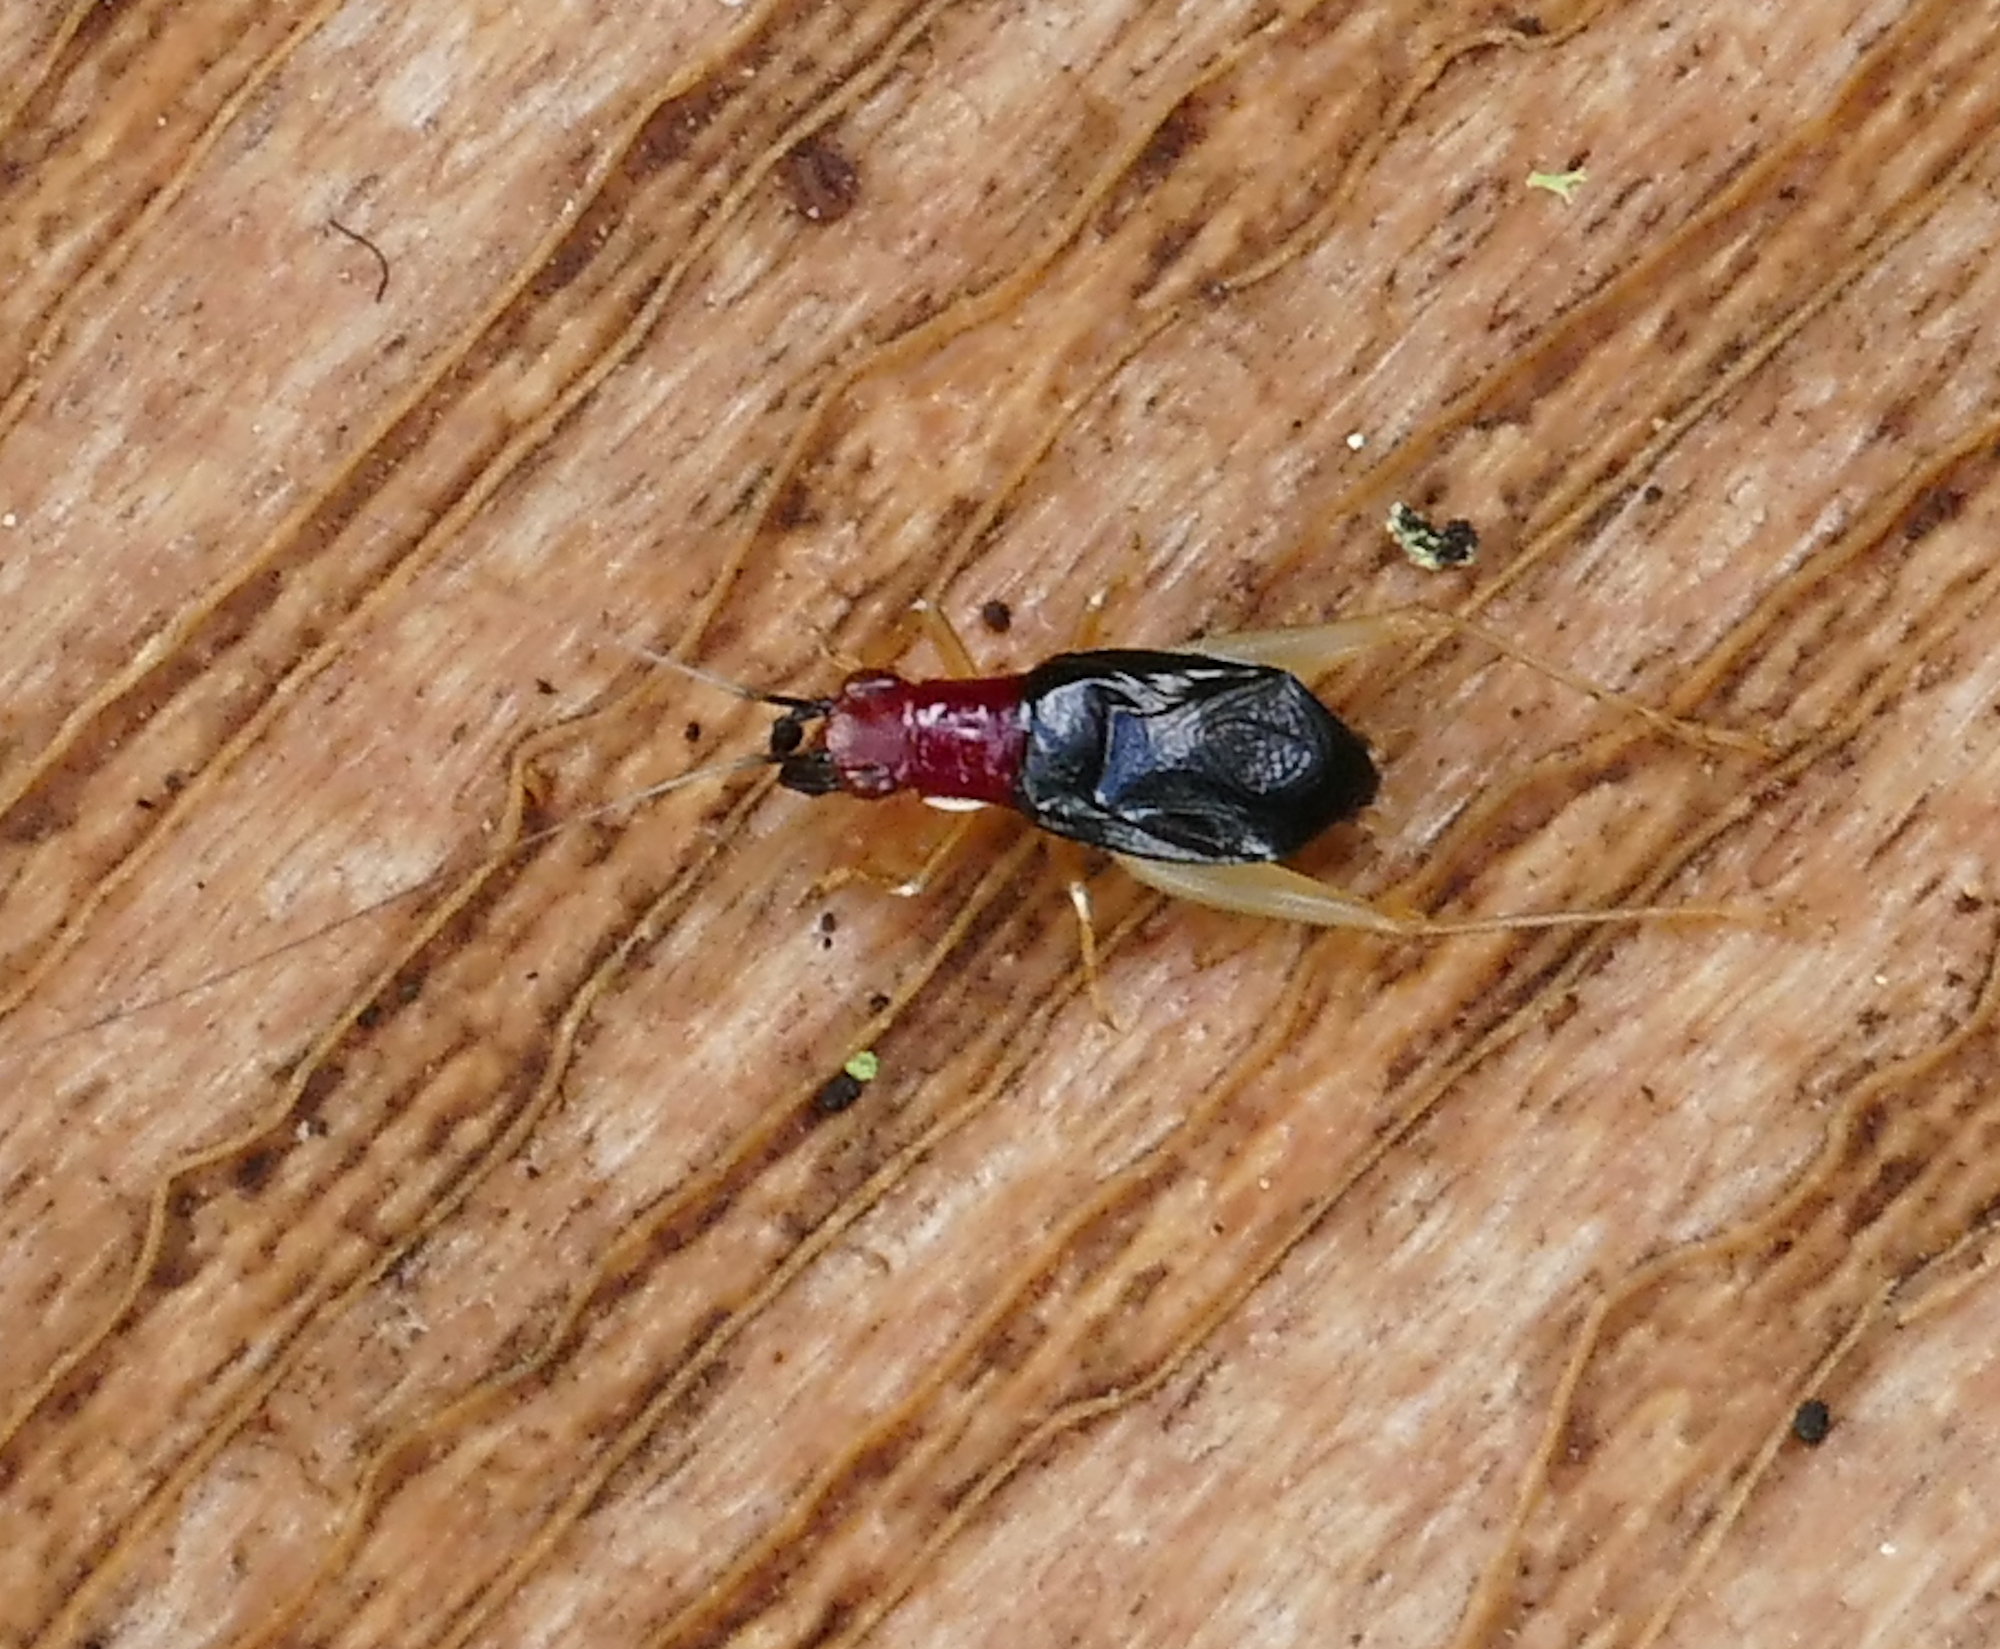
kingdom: Animalia
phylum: Arthropoda
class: Insecta
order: Orthoptera
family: Trigonidiidae
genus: Phyllopalpus
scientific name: Phyllopalpus pulchellus
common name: Handsome trig
